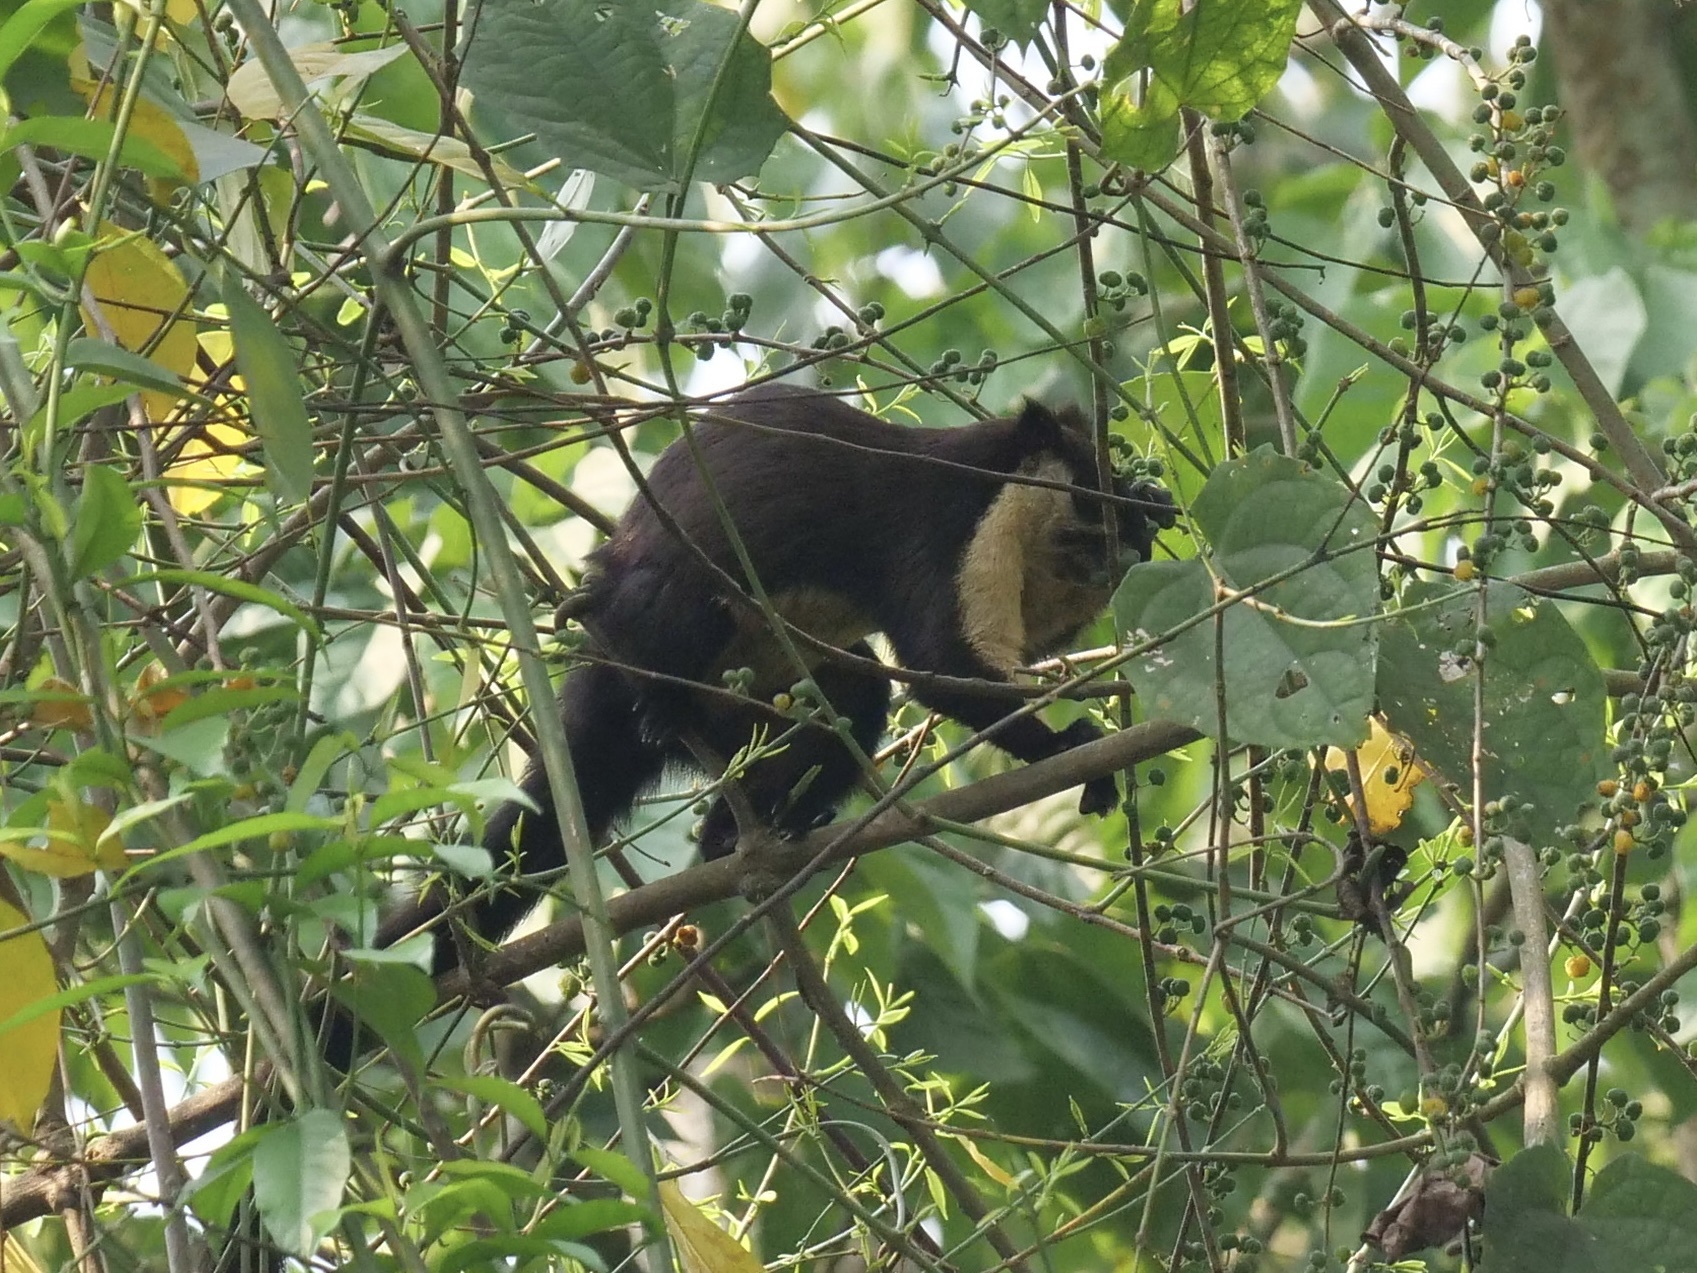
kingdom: Animalia
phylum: Chordata
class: Mammalia
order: Rodentia
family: Sciuridae
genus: Ratufa
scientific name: Ratufa bicolor
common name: Black giant squirrel
